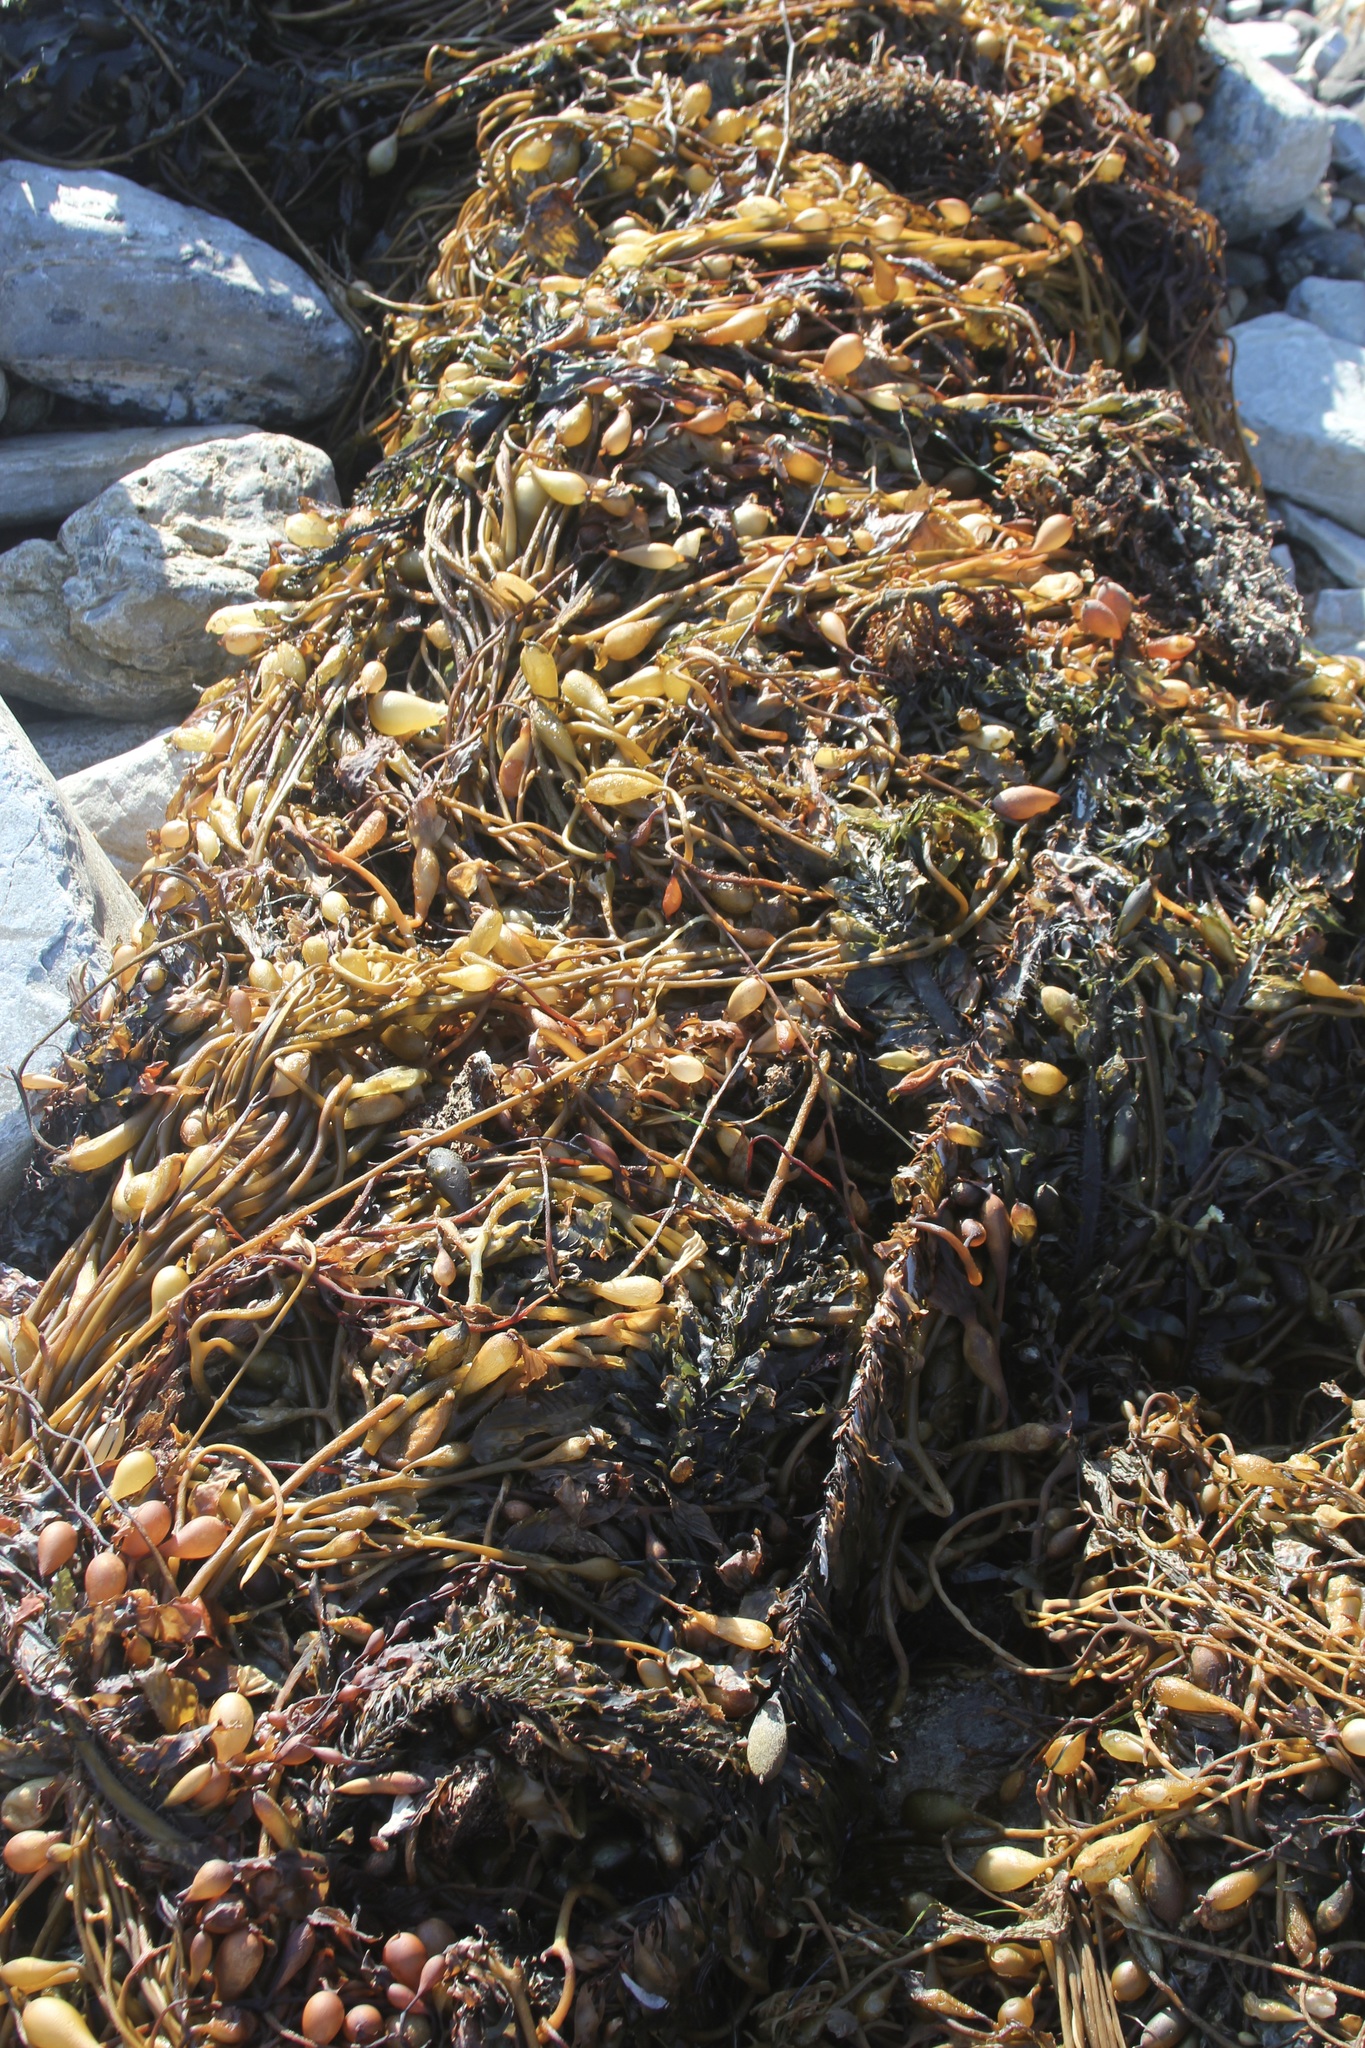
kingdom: Chromista
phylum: Ochrophyta
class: Phaeophyceae
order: Laminariales
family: Laminariaceae
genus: Macrocystis
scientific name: Macrocystis pyrifera
